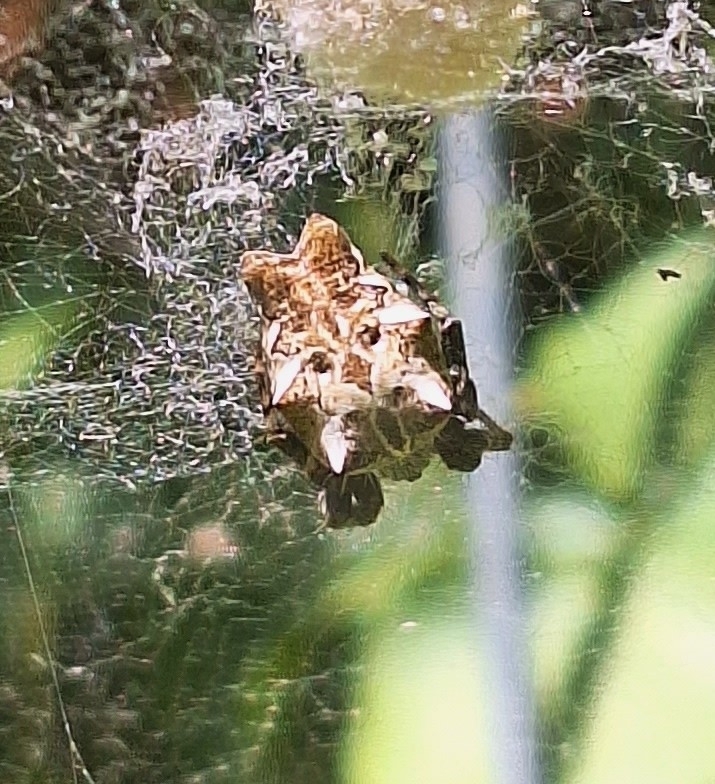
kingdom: Animalia
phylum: Arthropoda
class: Arachnida
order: Araneae
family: Araneidae
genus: Cyrtophora
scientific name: Cyrtophora citricola
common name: Orb weavers
